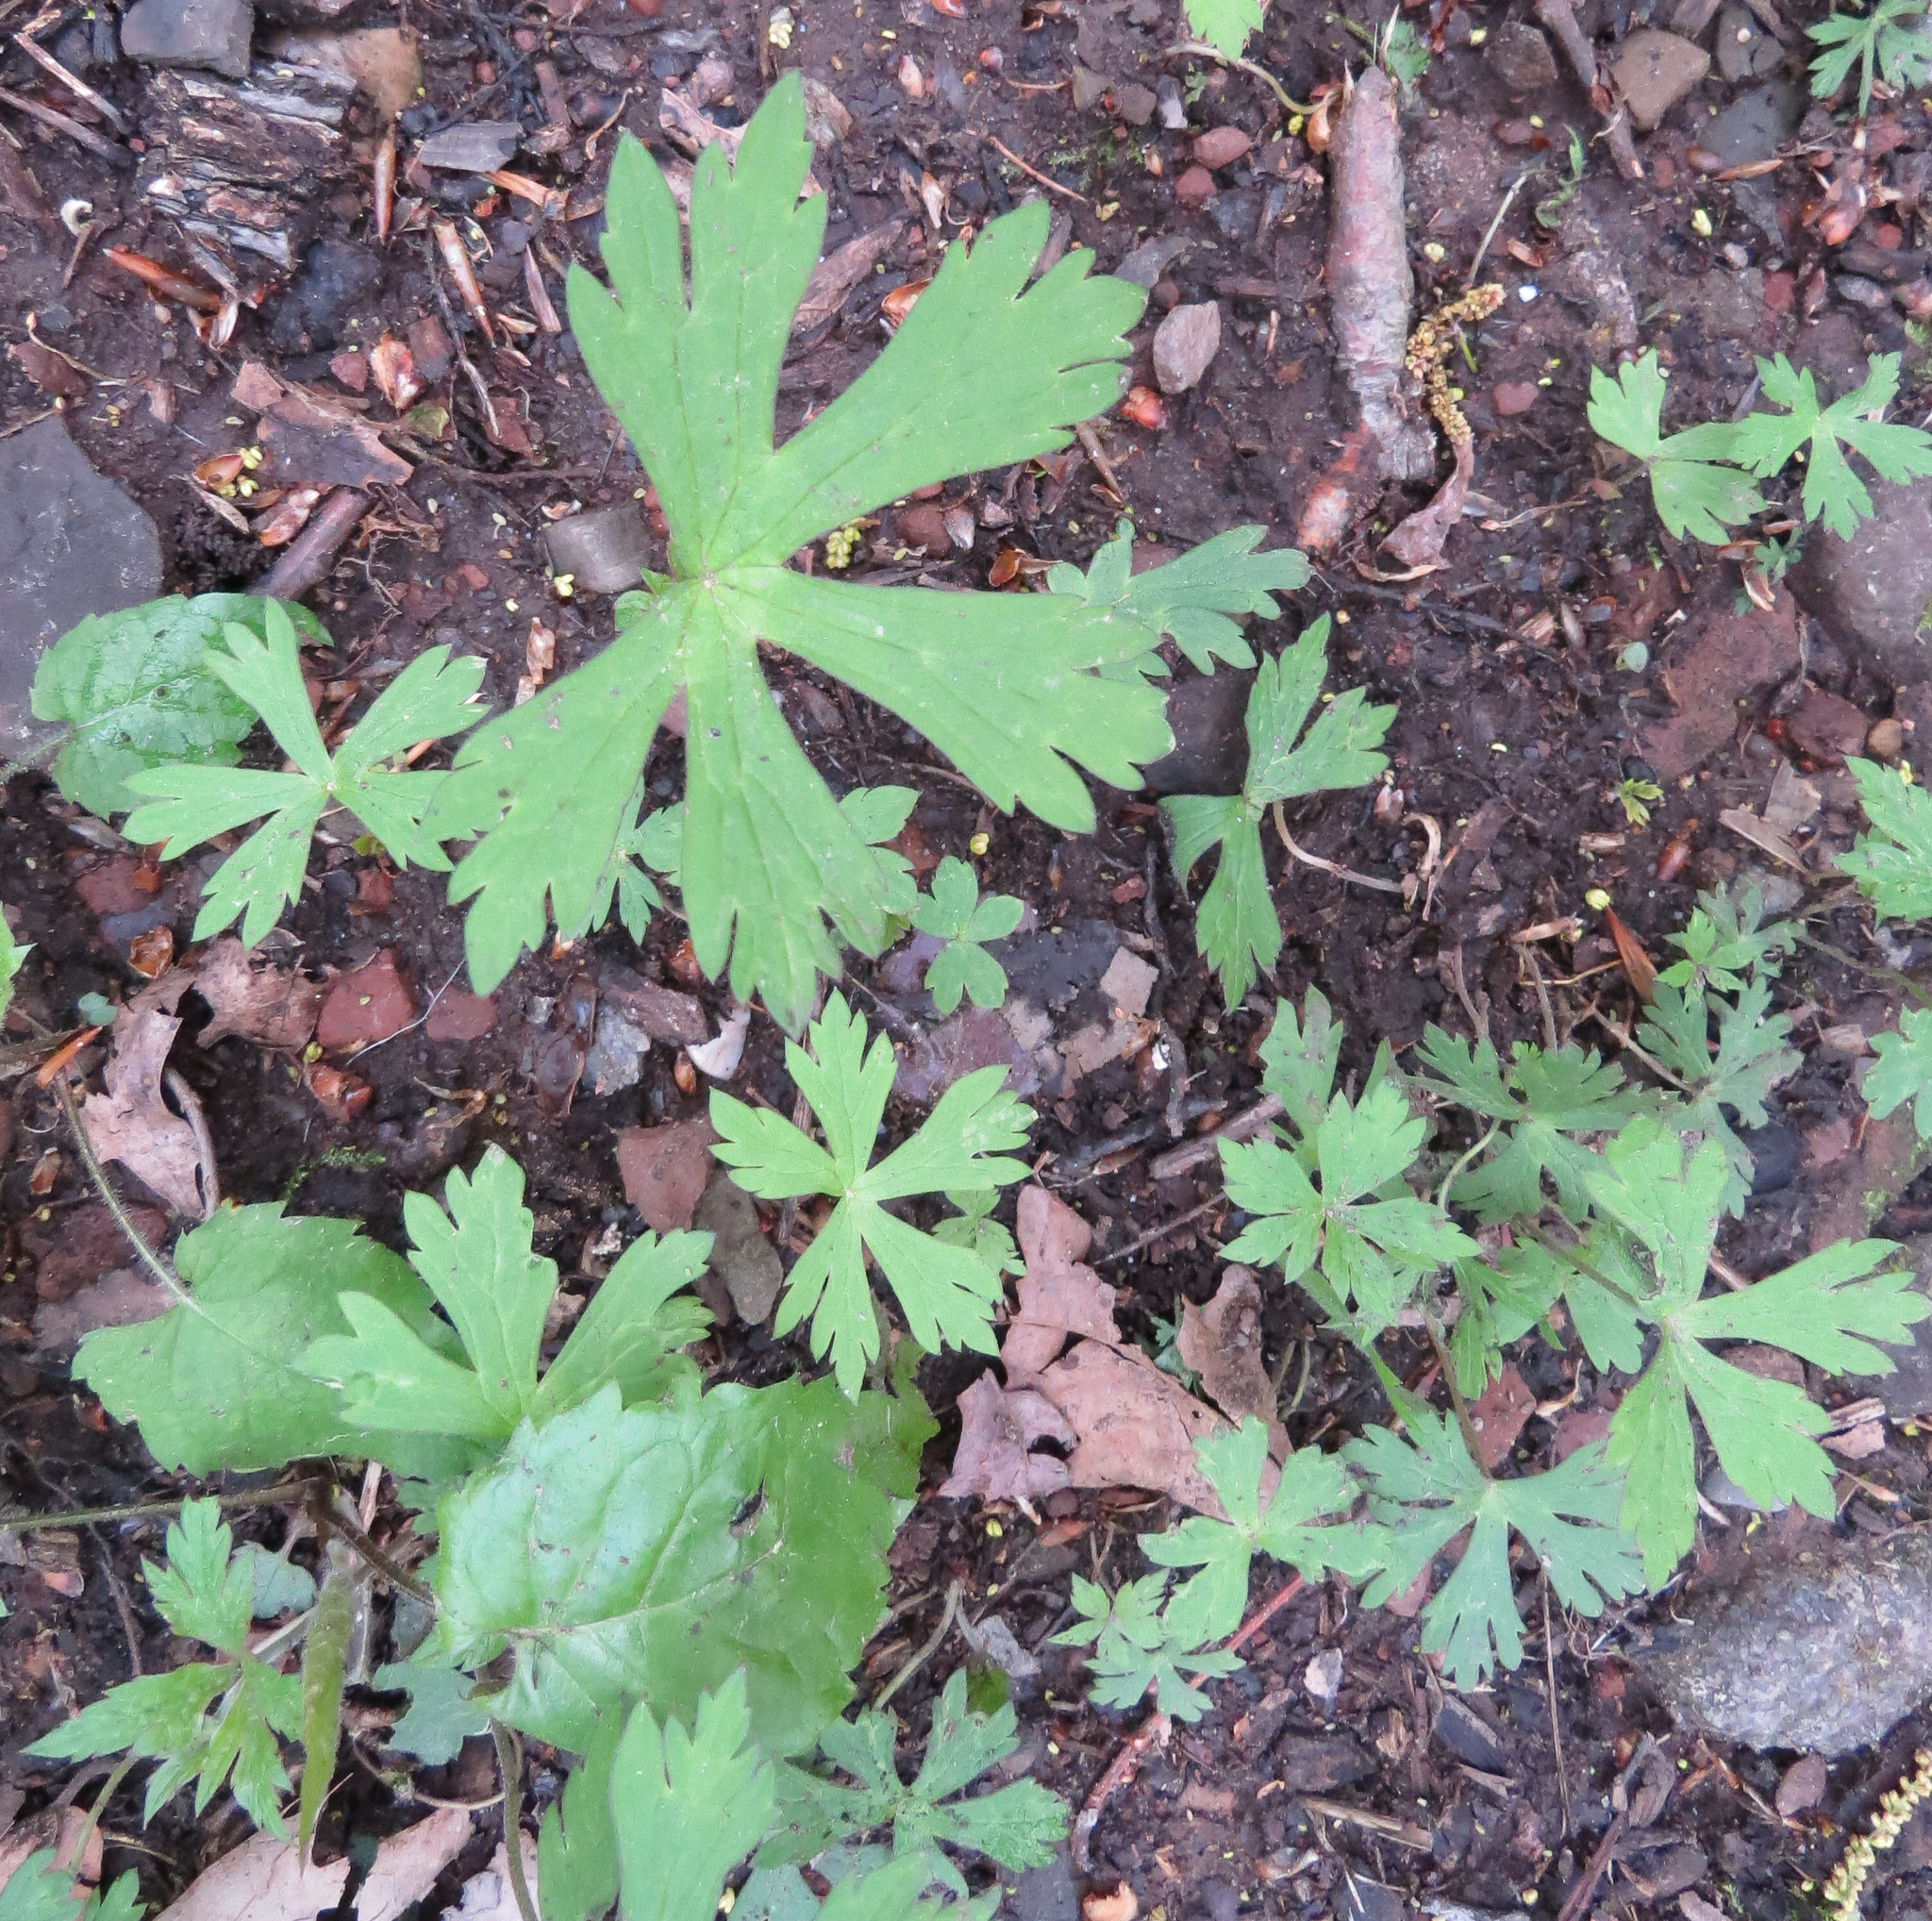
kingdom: Plantae
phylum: Tracheophyta
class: Magnoliopsida
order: Geraniales
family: Geraniaceae
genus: Geranium
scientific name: Geranium maculatum
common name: Spotted geranium
